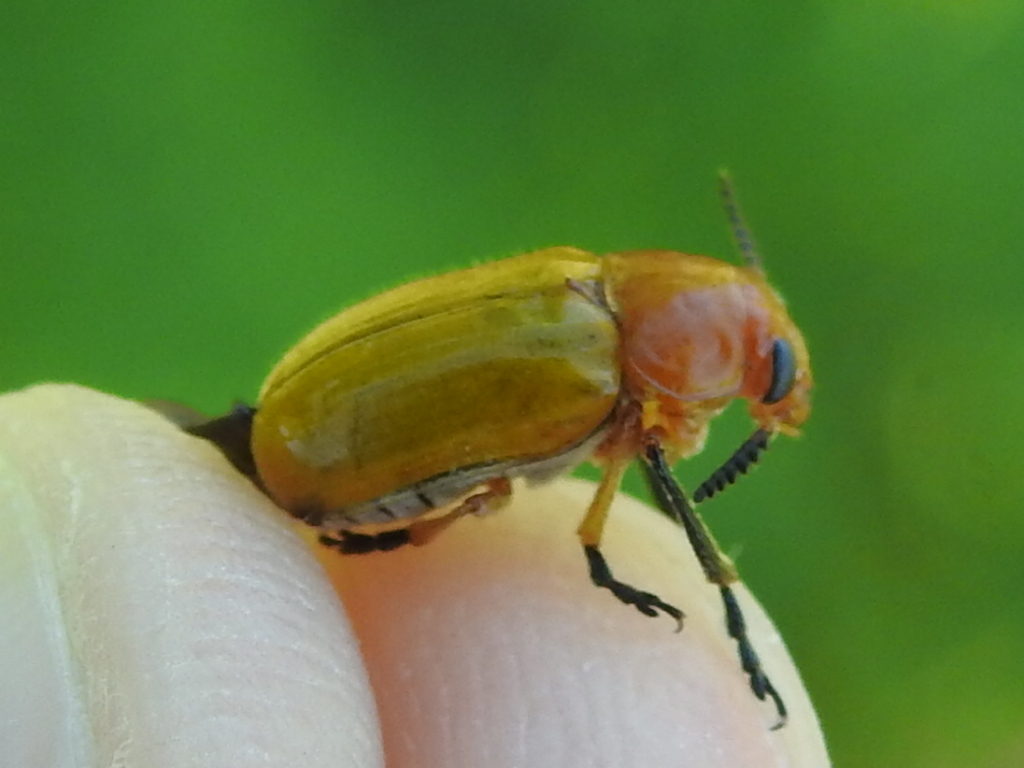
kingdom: Animalia
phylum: Arthropoda
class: Insecta
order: Coleoptera
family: Chrysomelidae
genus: Anomoea
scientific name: Anomoea laticlavia
